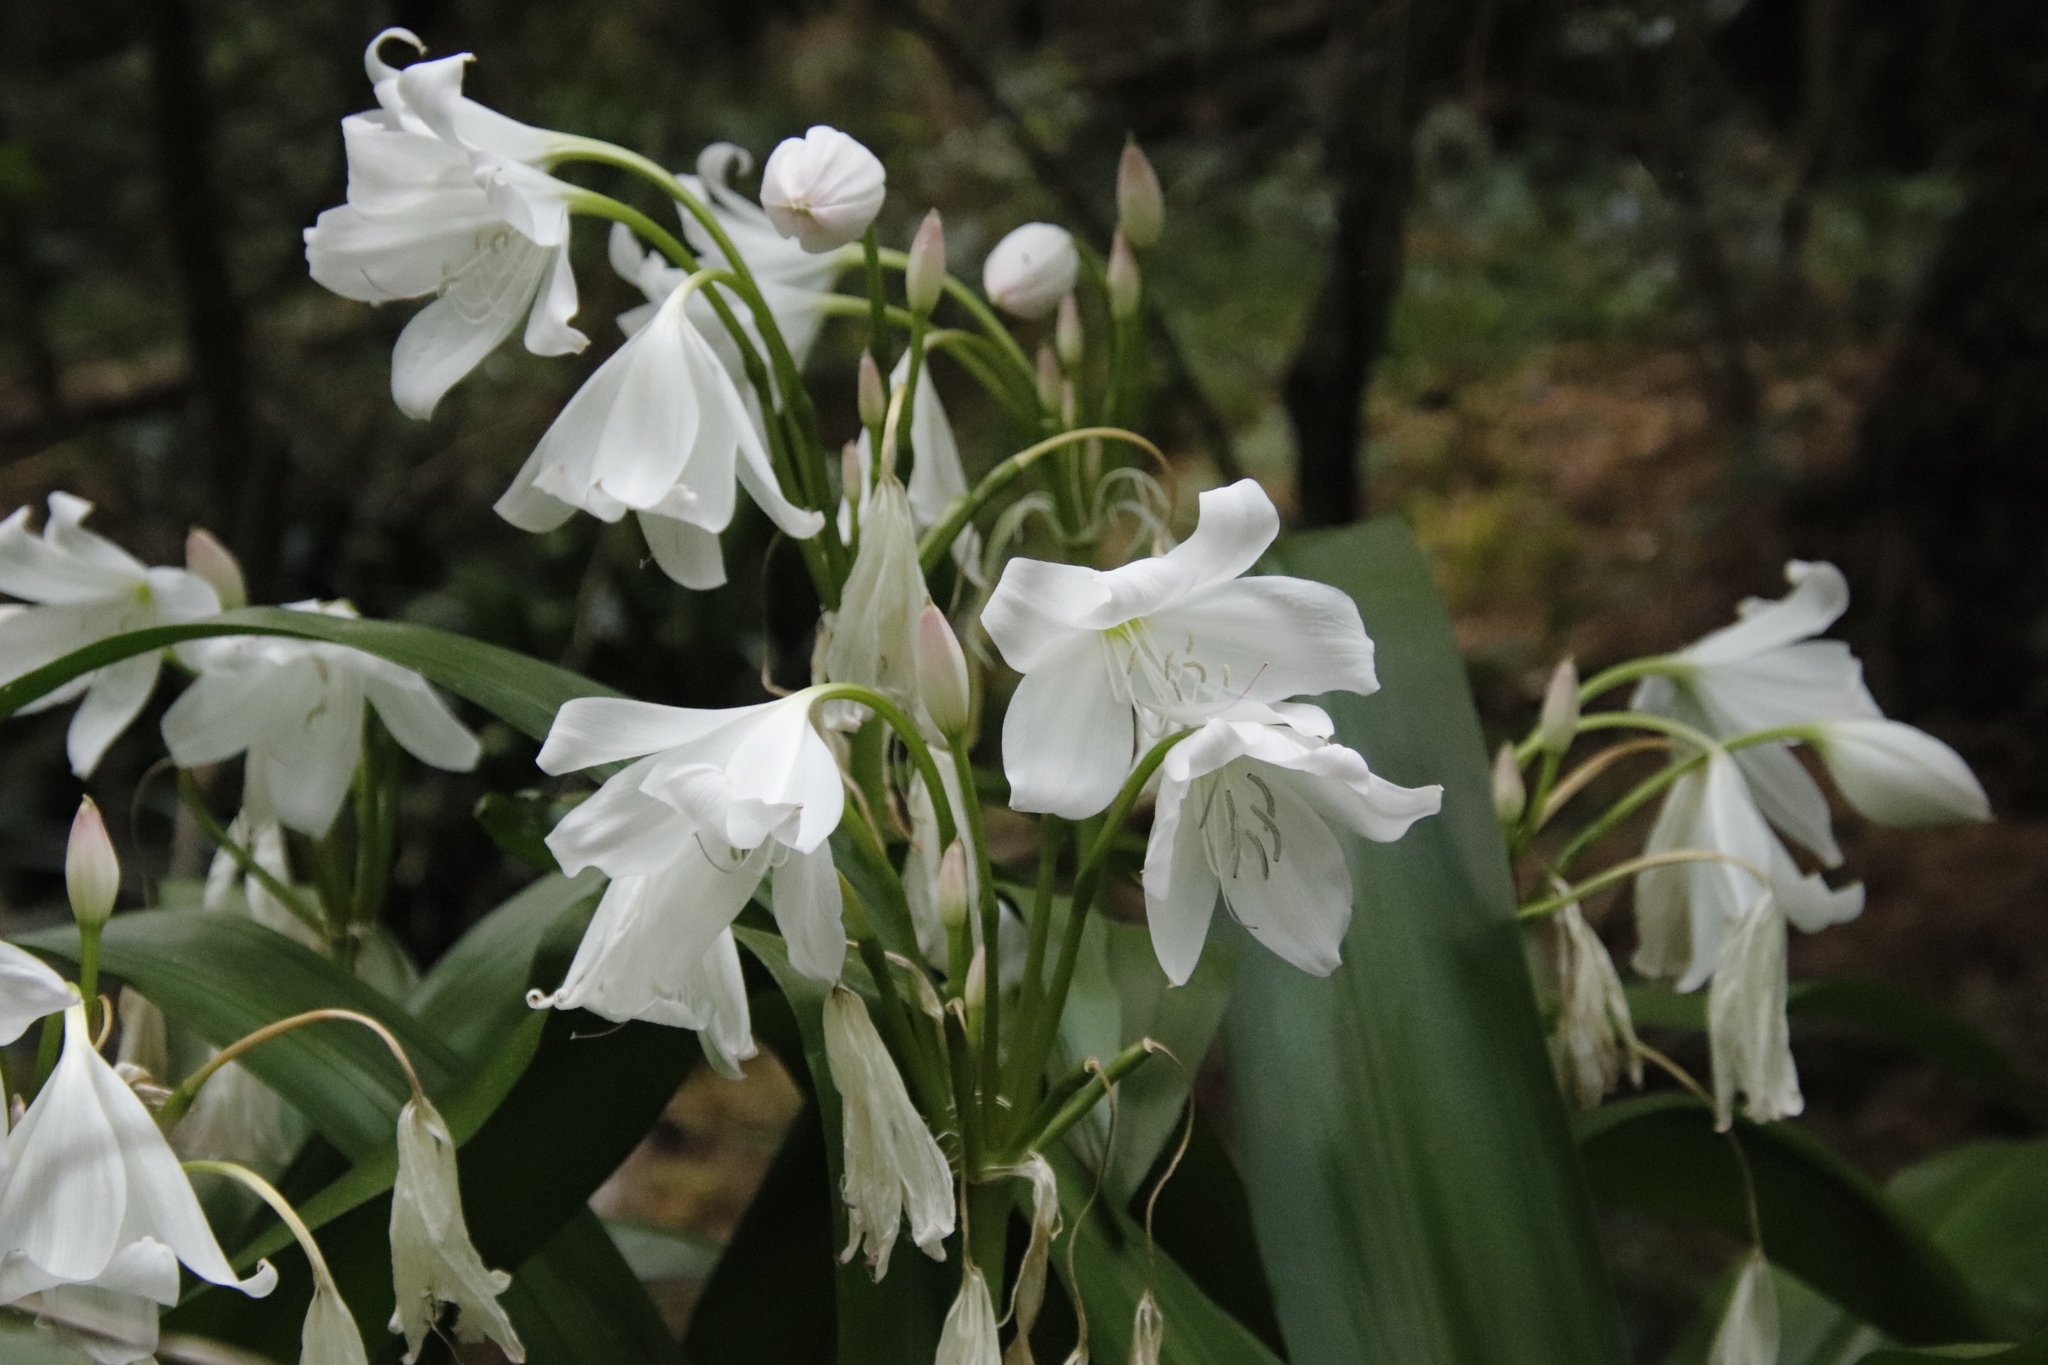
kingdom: Plantae
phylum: Tracheophyta
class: Liliopsida
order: Asparagales
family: Amaryllidaceae
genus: Crinum
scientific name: Crinum moorei
